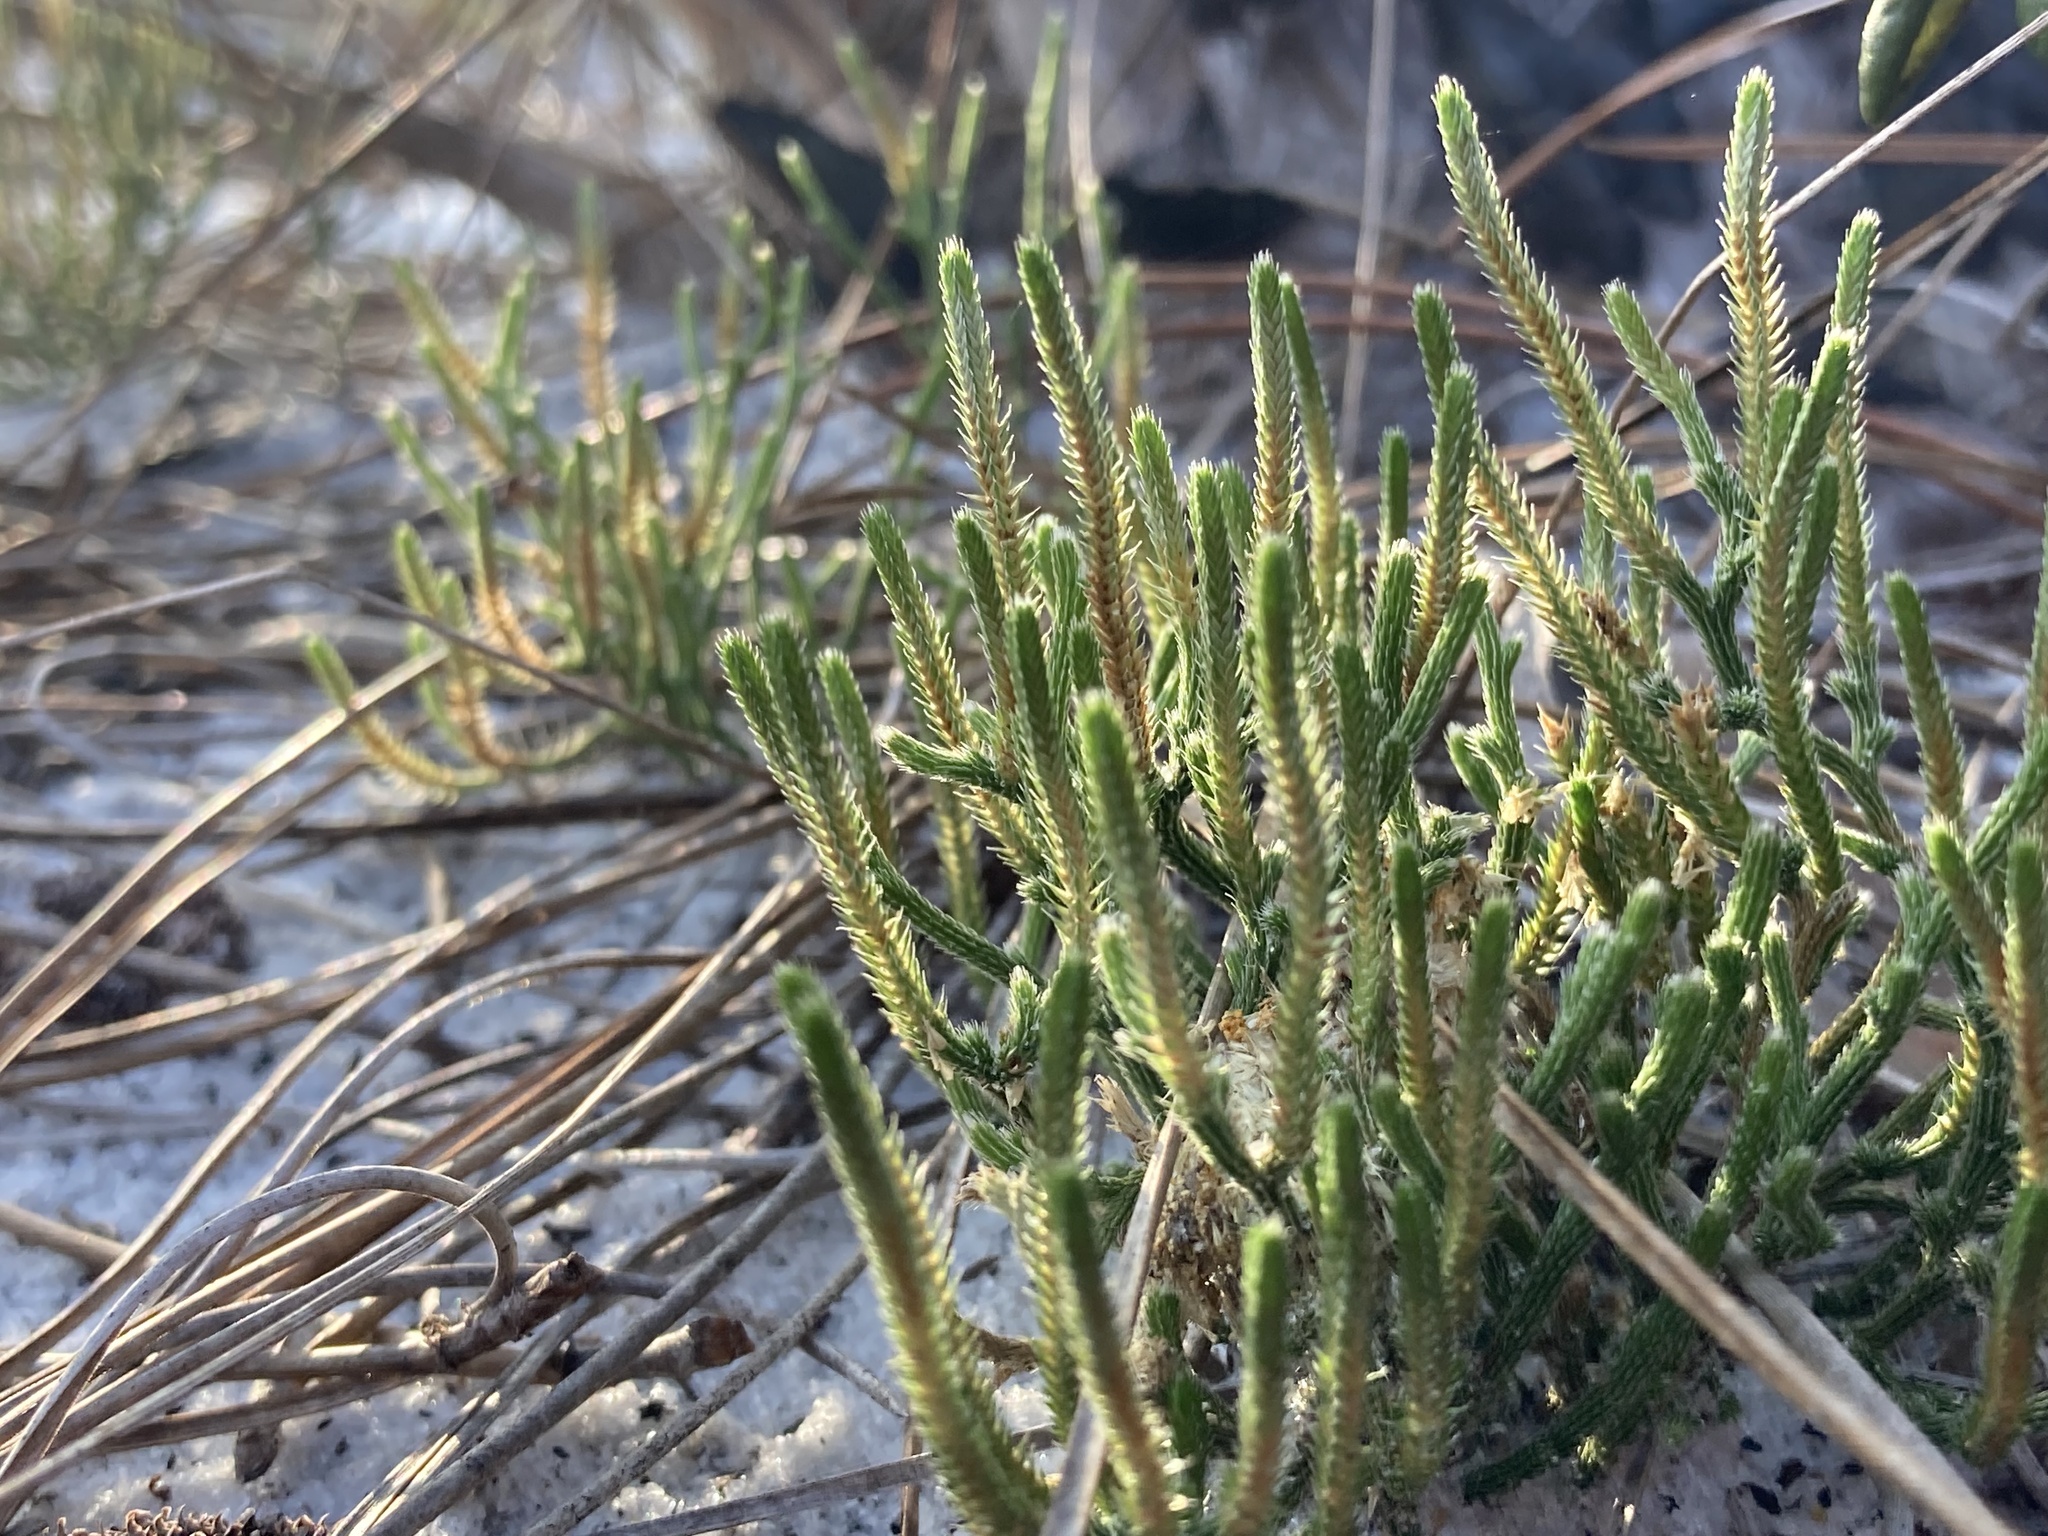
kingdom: Plantae
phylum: Tracheophyta
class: Lycopodiopsida
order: Selaginellales
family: Selaginellaceae
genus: Selaginella
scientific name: Selaginella arenicola
